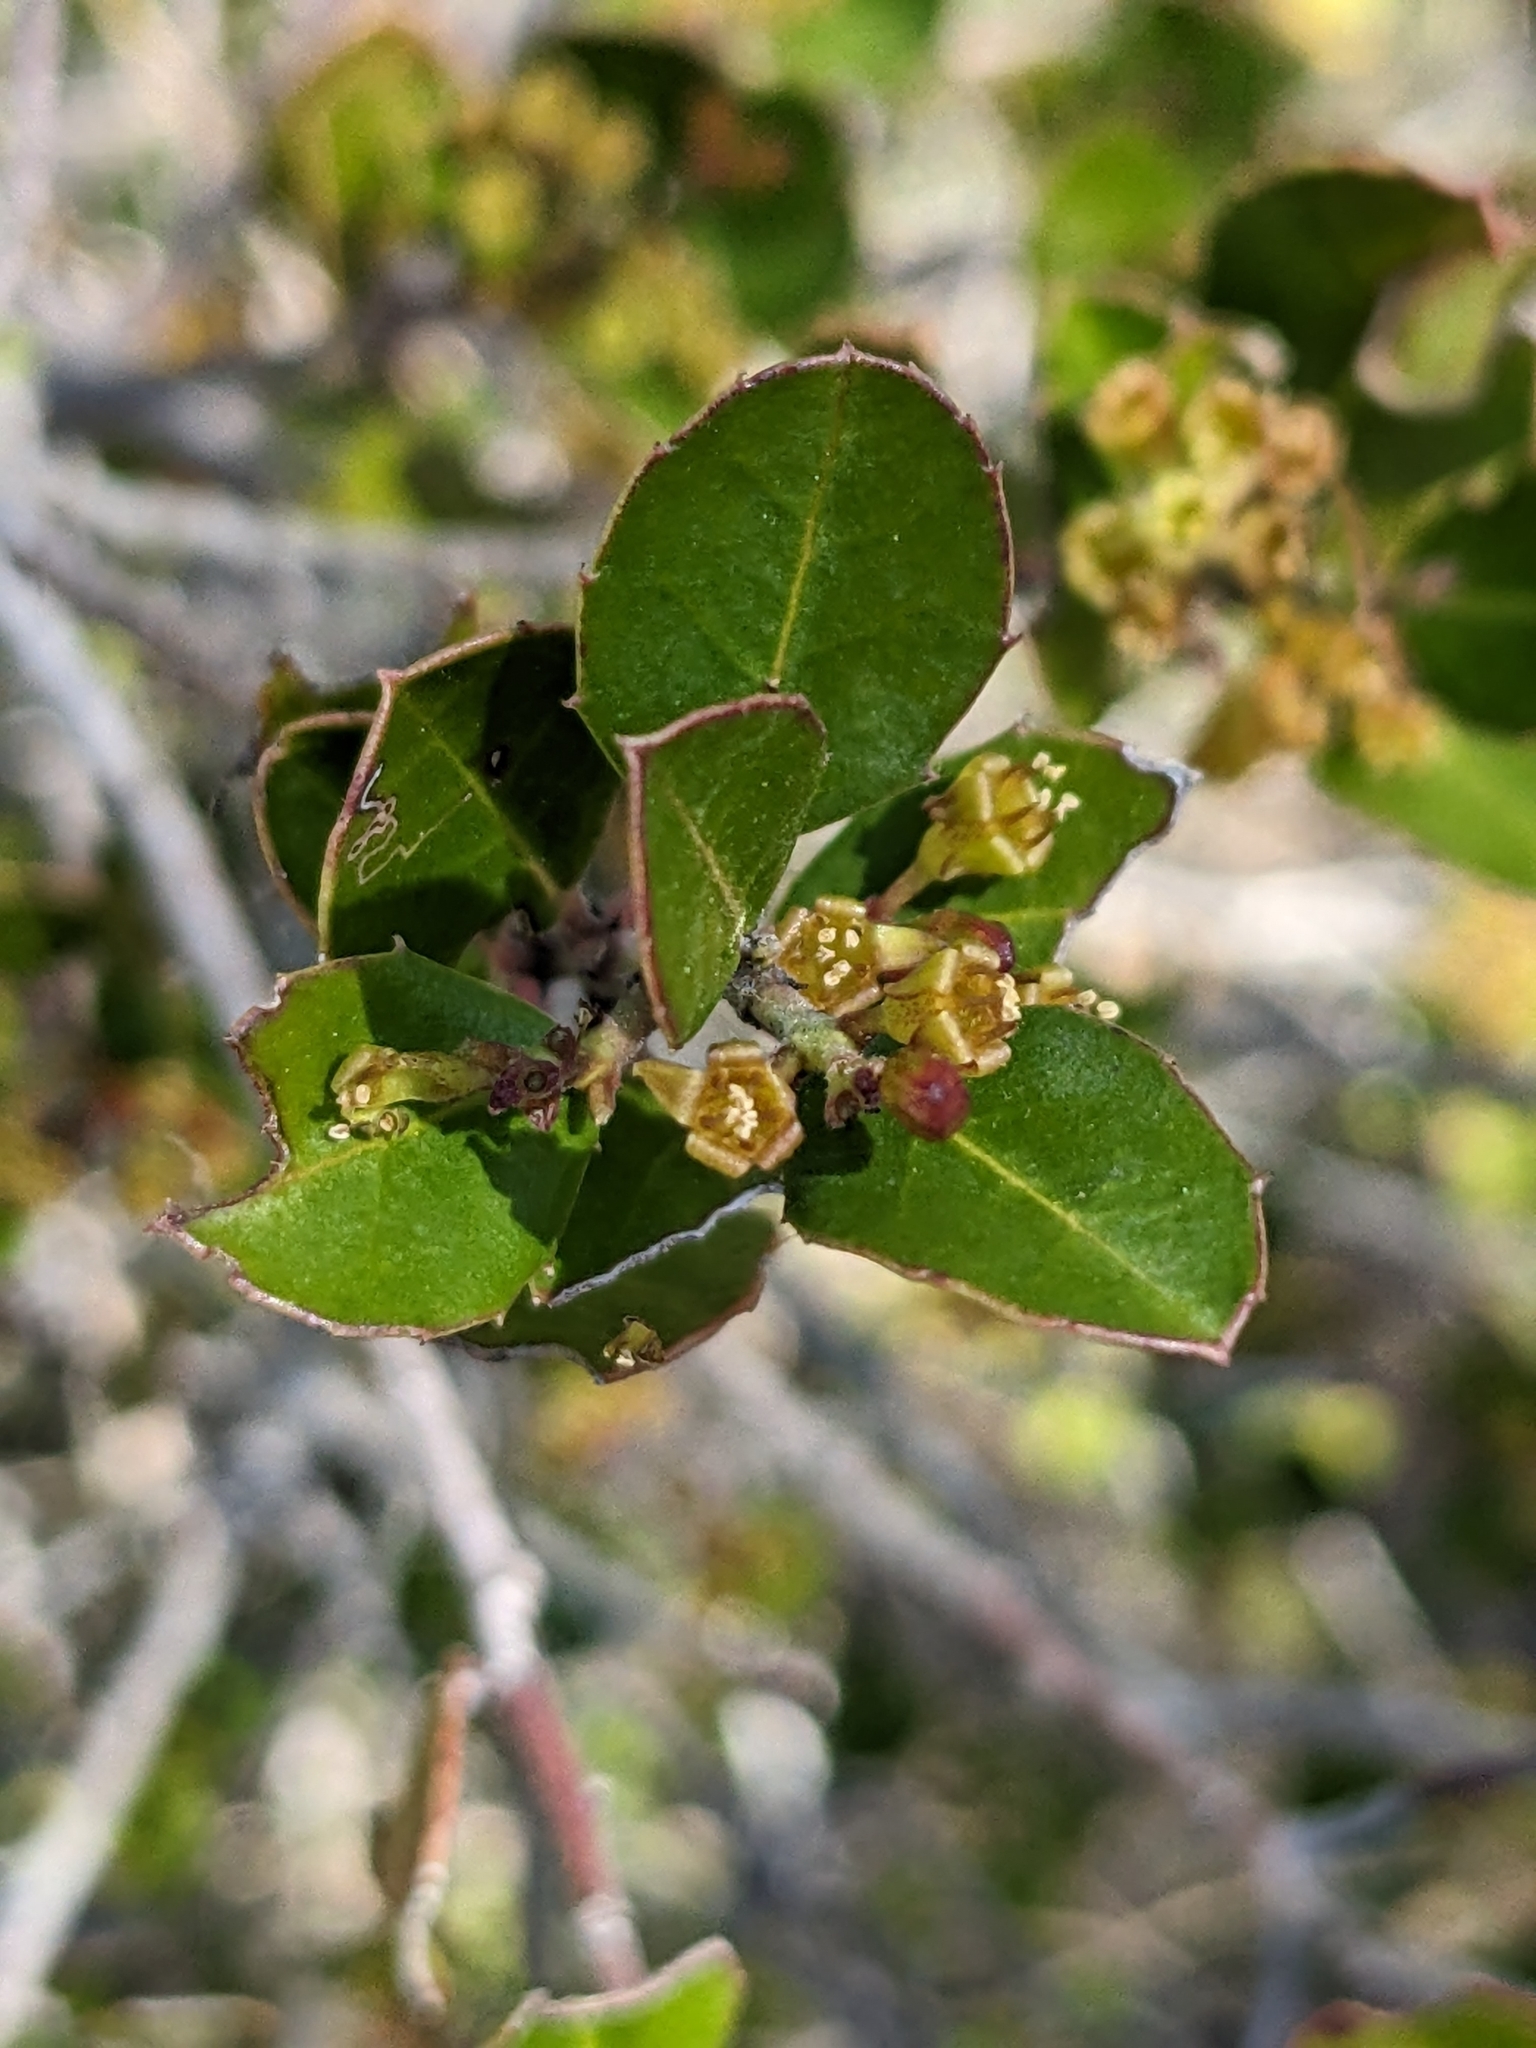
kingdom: Plantae
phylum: Tracheophyta
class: Magnoliopsida
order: Rosales
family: Rhamnaceae
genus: Rhamnus
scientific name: Rhamnus alaternus
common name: Mediterranean buckthorn
